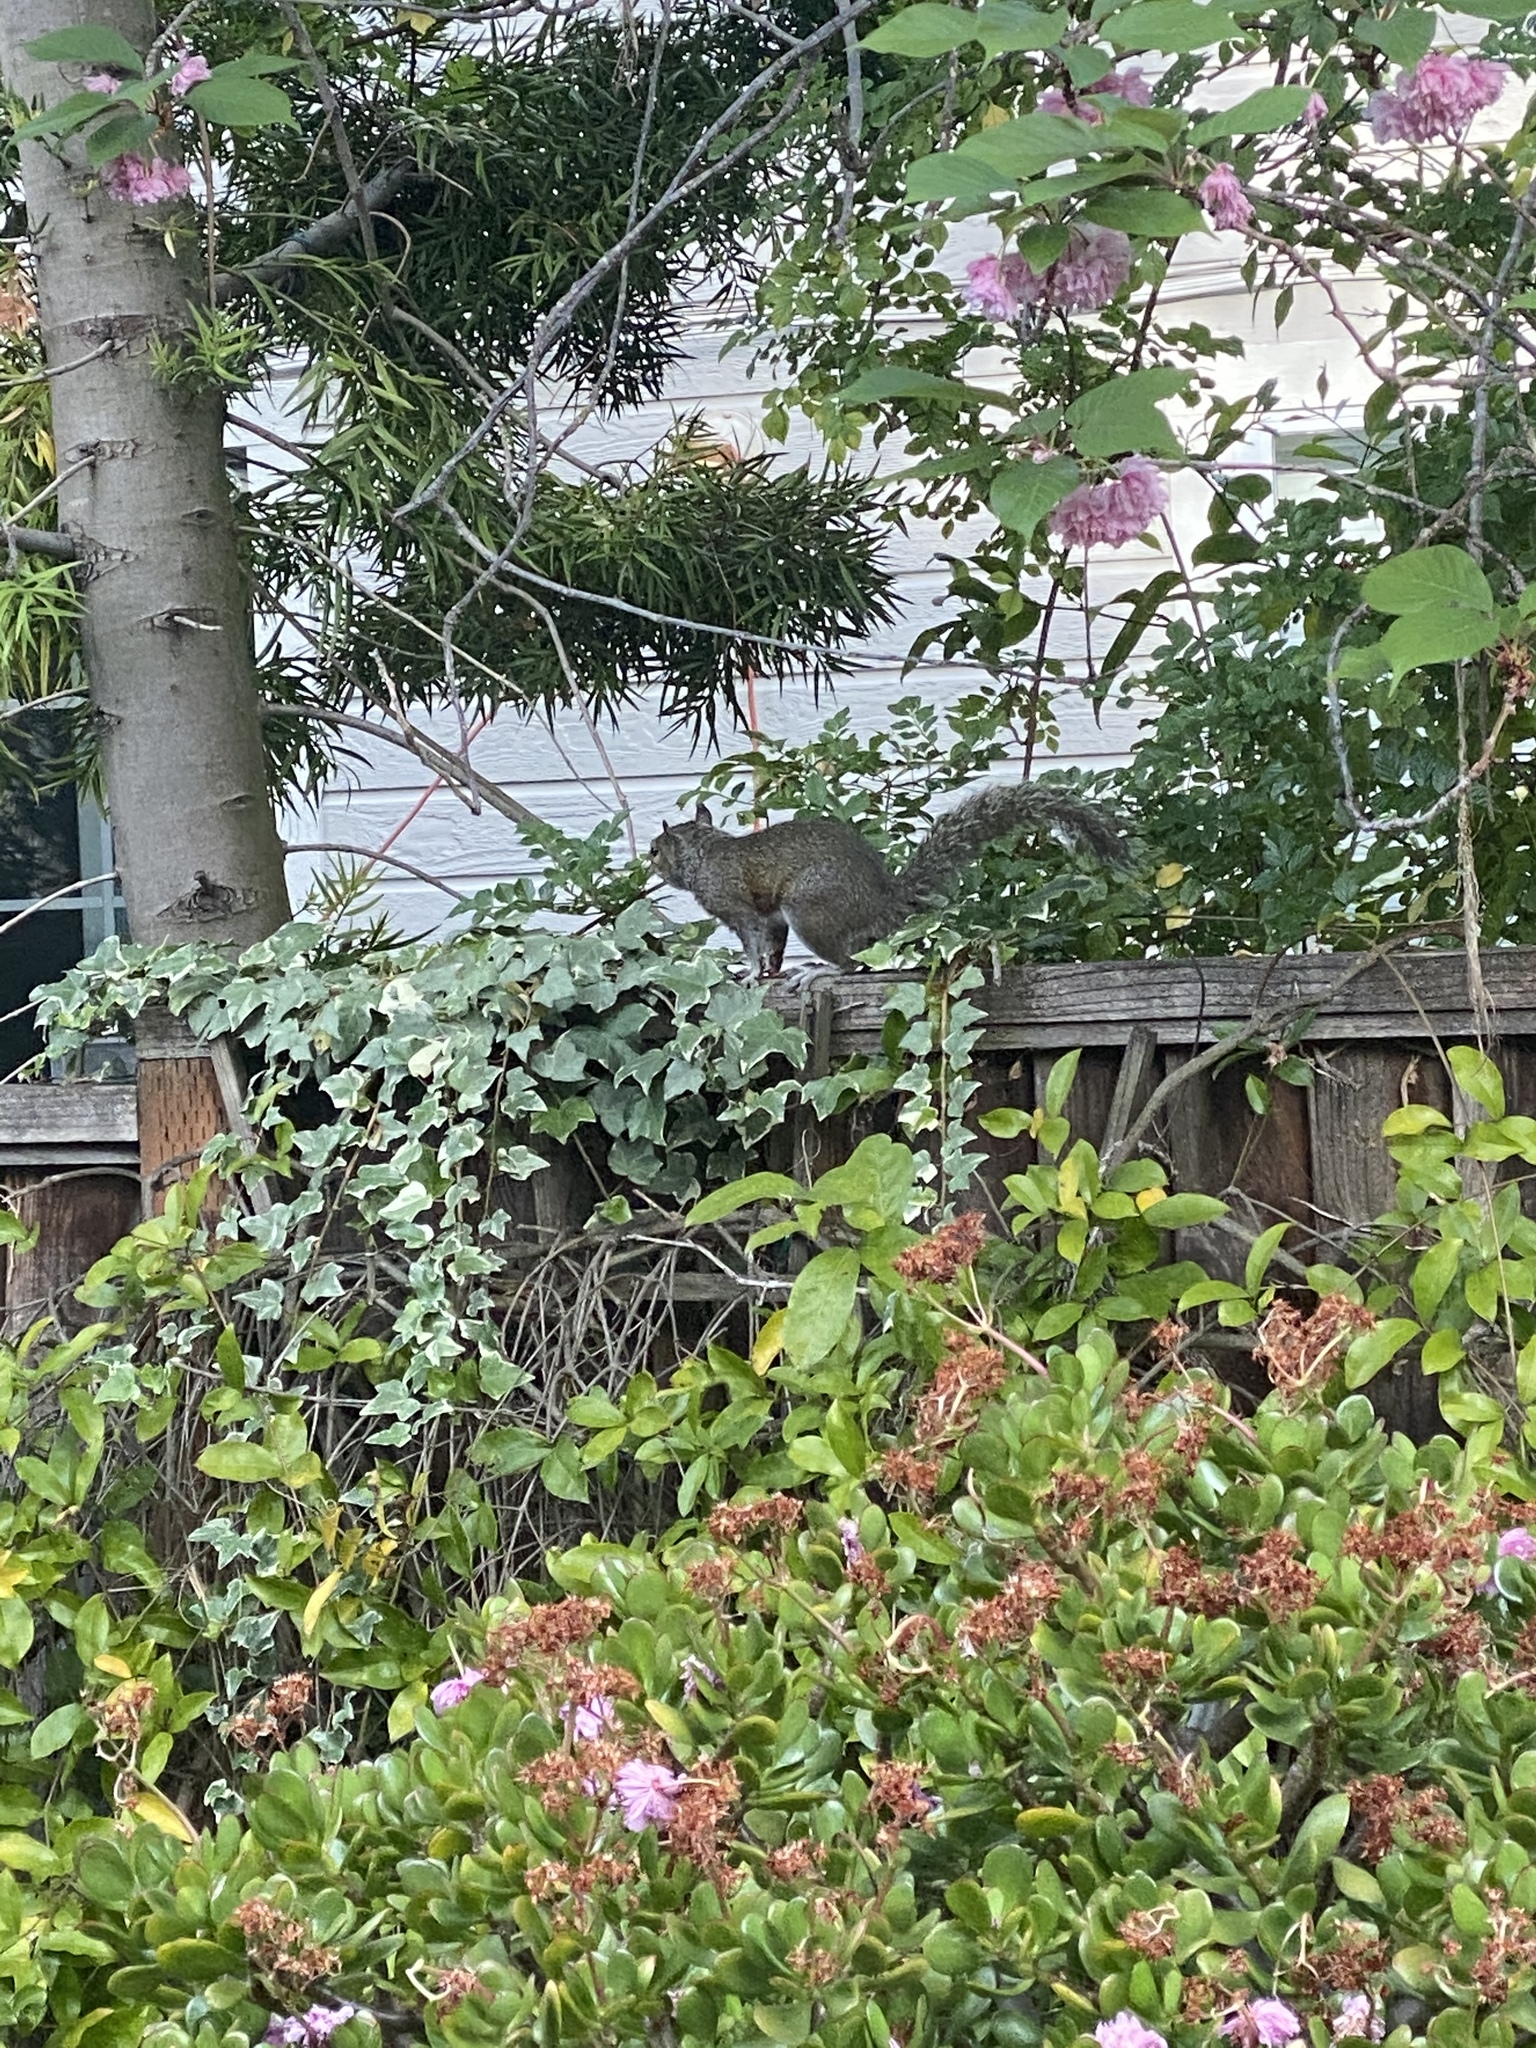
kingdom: Animalia
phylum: Chordata
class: Mammalia
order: Rodentia
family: Sciuridae
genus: Sciurus
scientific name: Sciurus carolinensis
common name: Eastern gray squirrel
